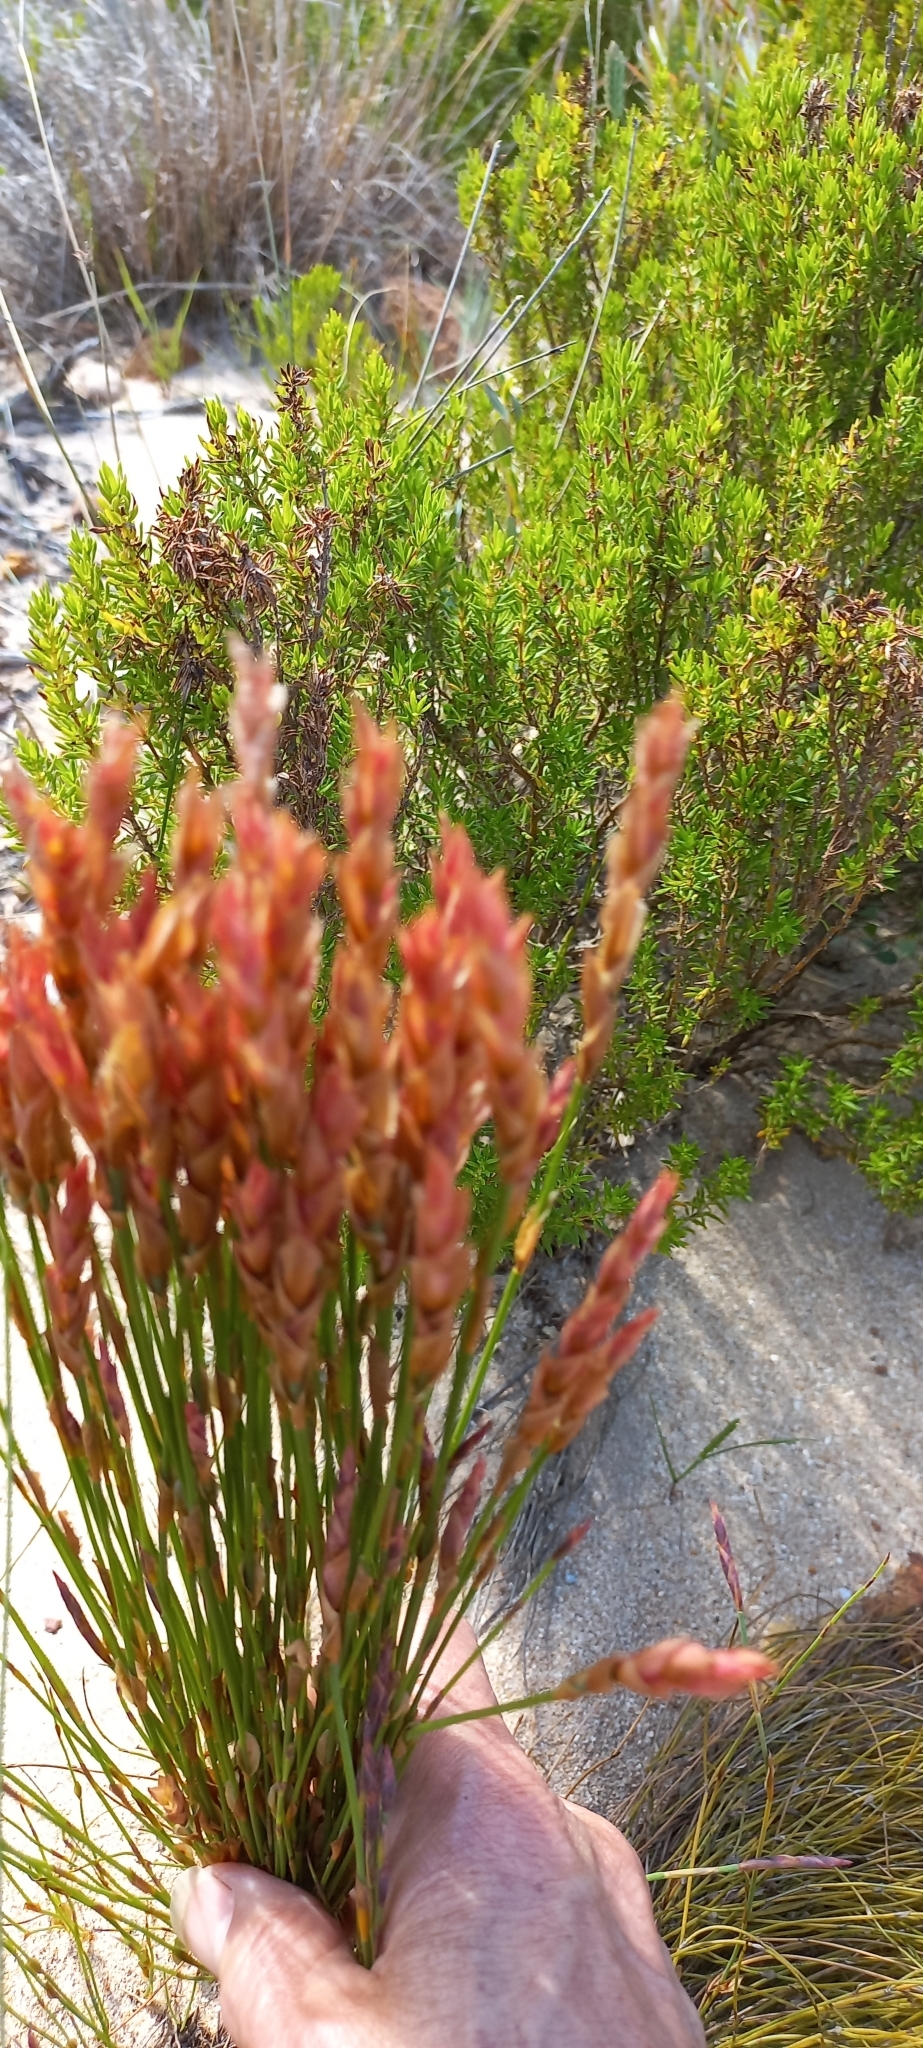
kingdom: Plantae
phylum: Tracheophyta
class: Liliopsida
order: Poales
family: Restionaceae
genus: Elegia
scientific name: Elegia stipularis
